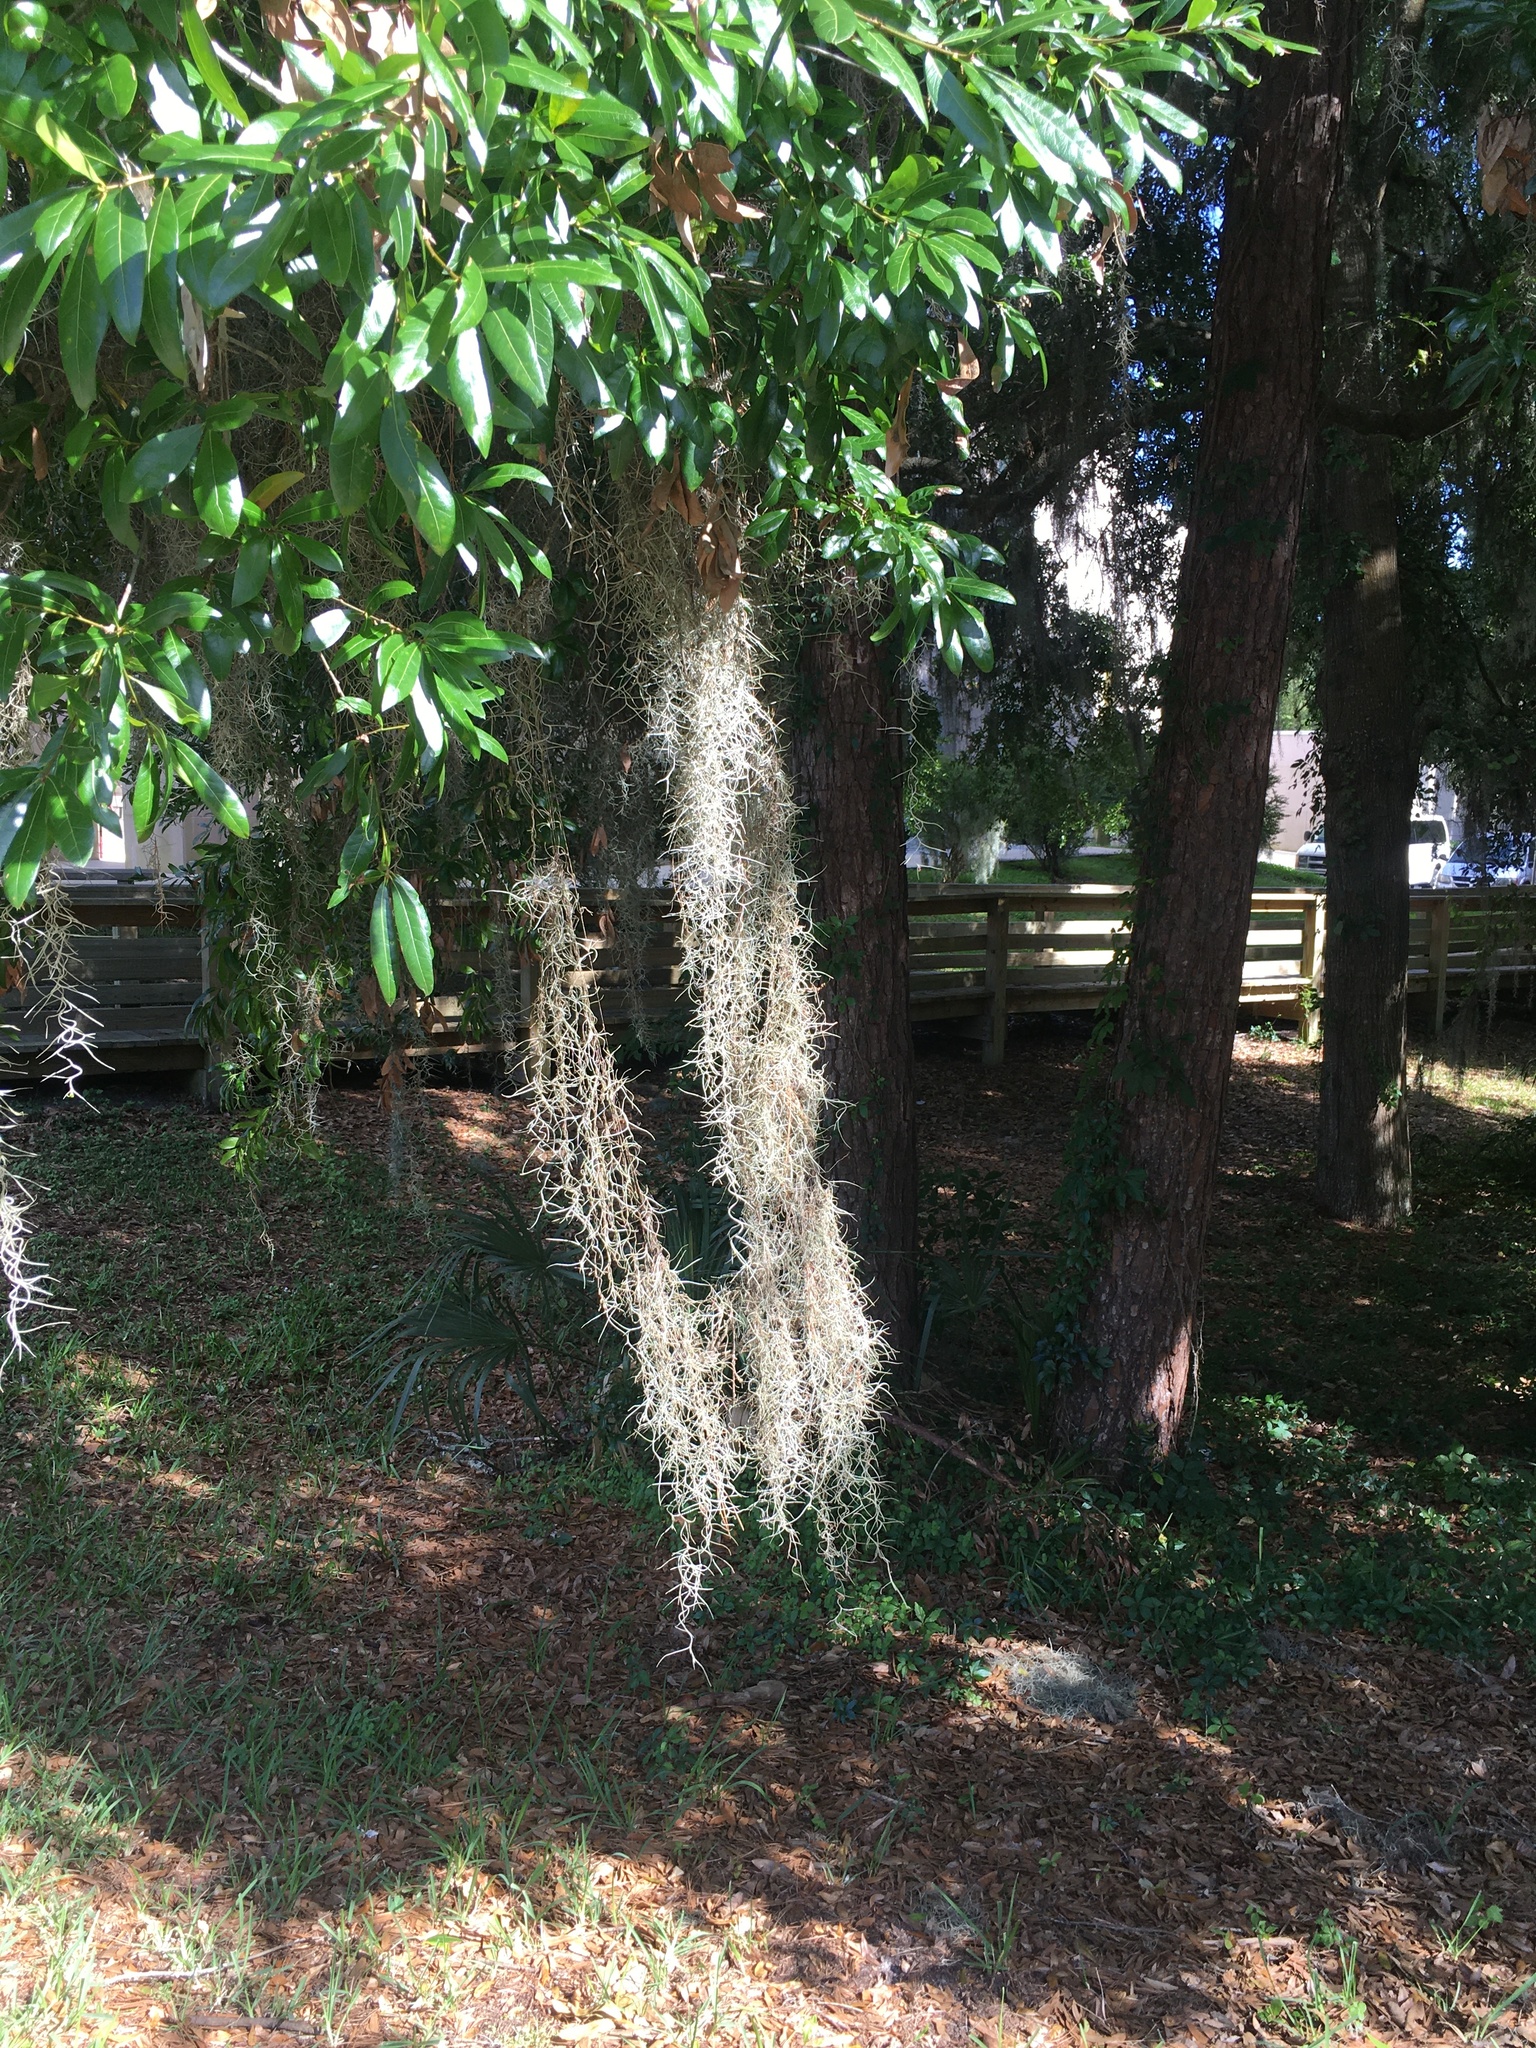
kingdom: Plantae
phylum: Tracheophyta
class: Liliopsida
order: Poales
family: Bromeliaceae
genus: Tillandsia
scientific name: Tillandsia usneoides
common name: Spanish moss
